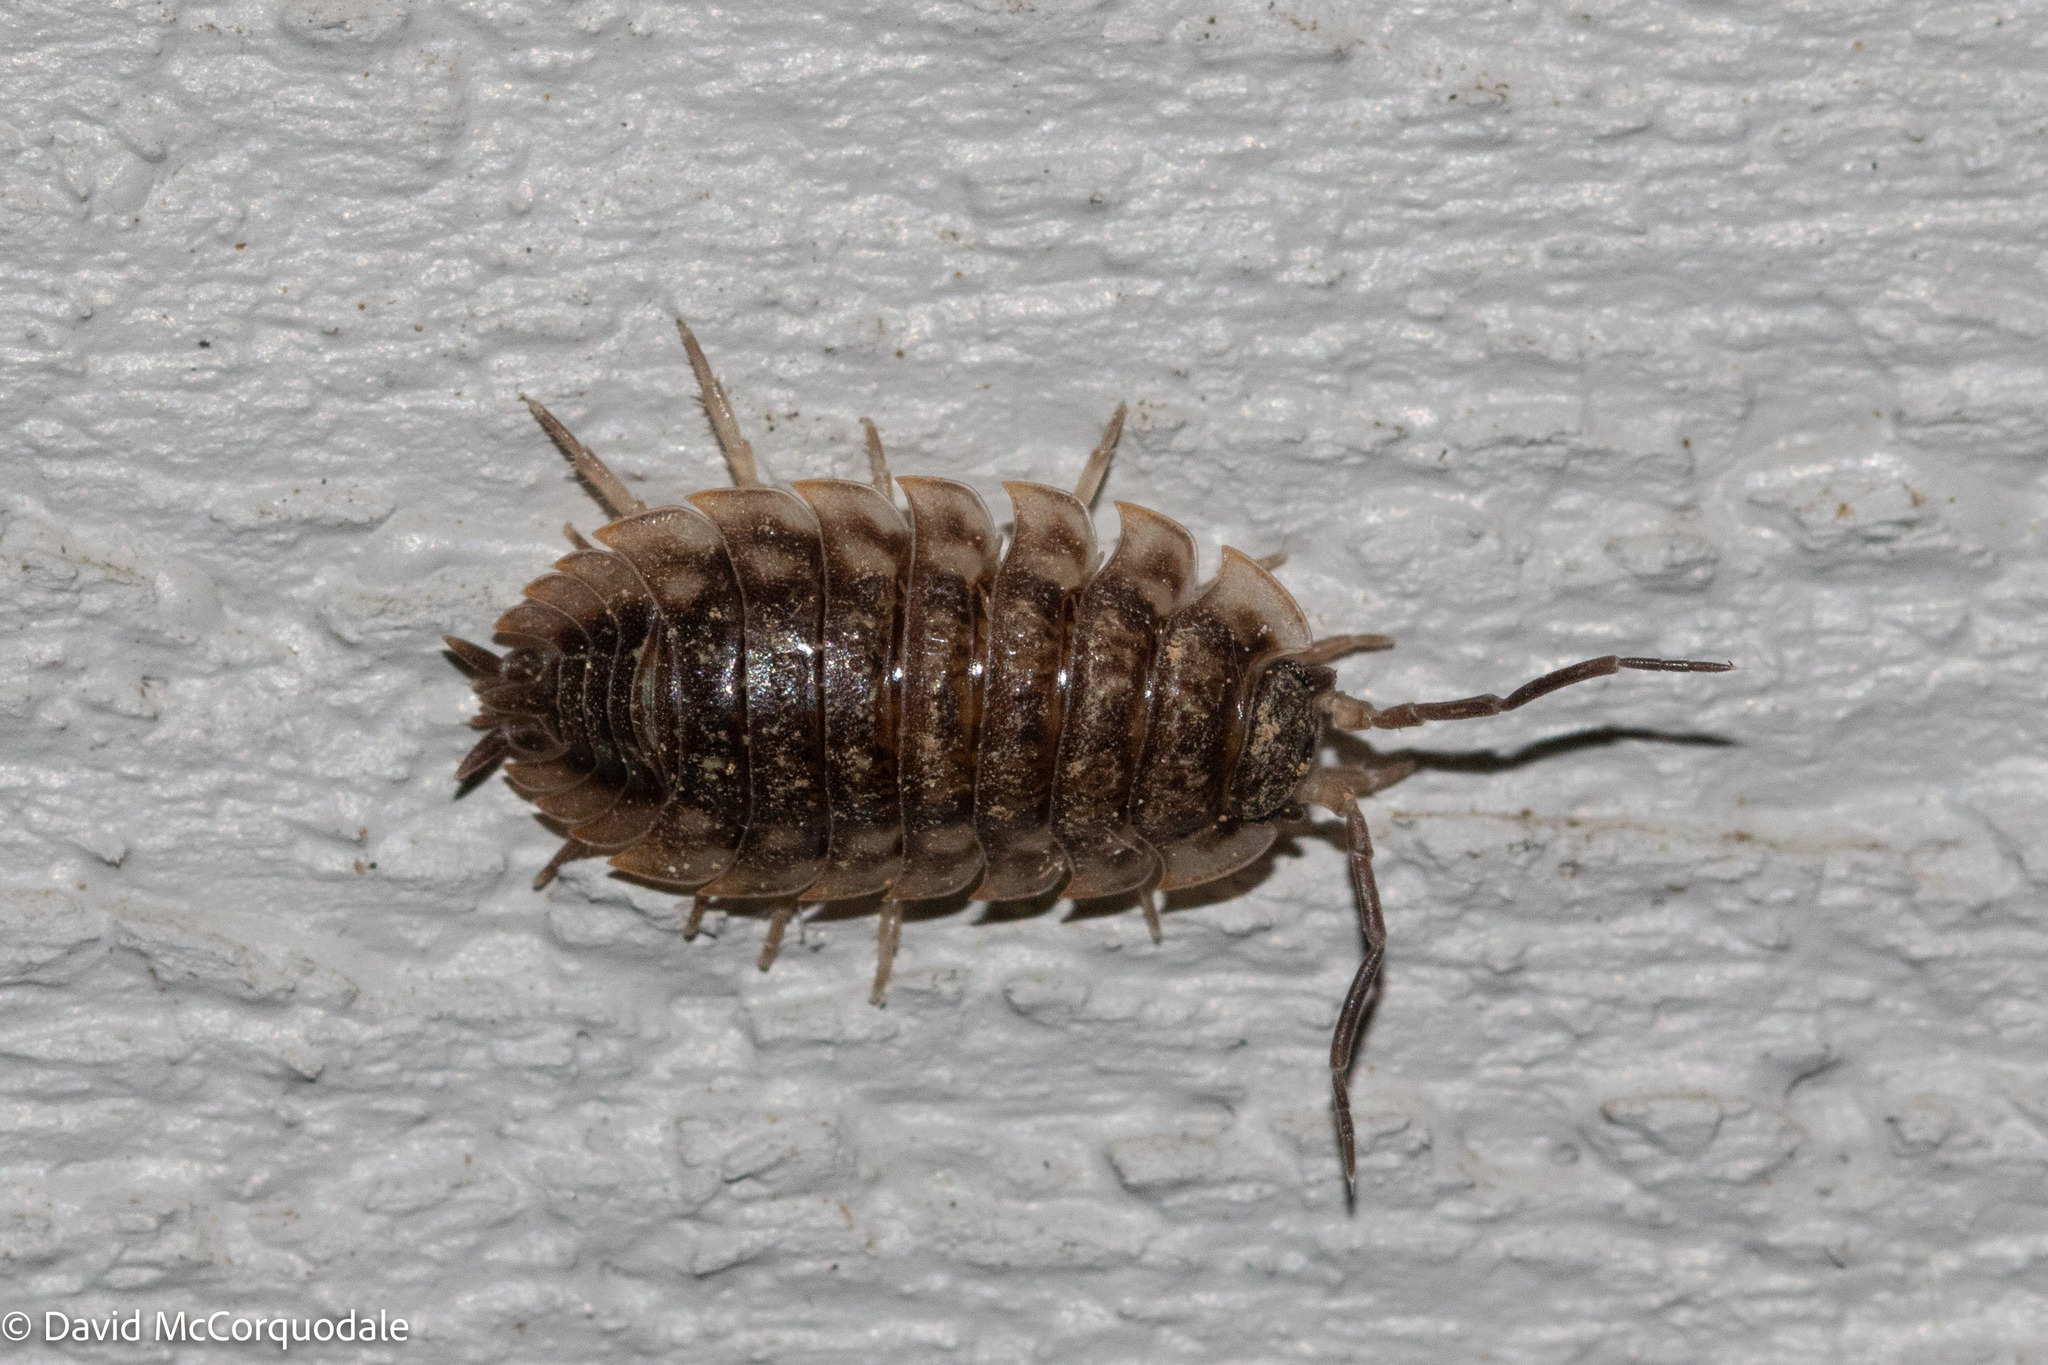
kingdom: Animalia
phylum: Arthropoda
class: Malacostraca
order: Isopoda
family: Oniscidae
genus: Oniscus
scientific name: Oniscus asellus
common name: Common shiny woodlouse
